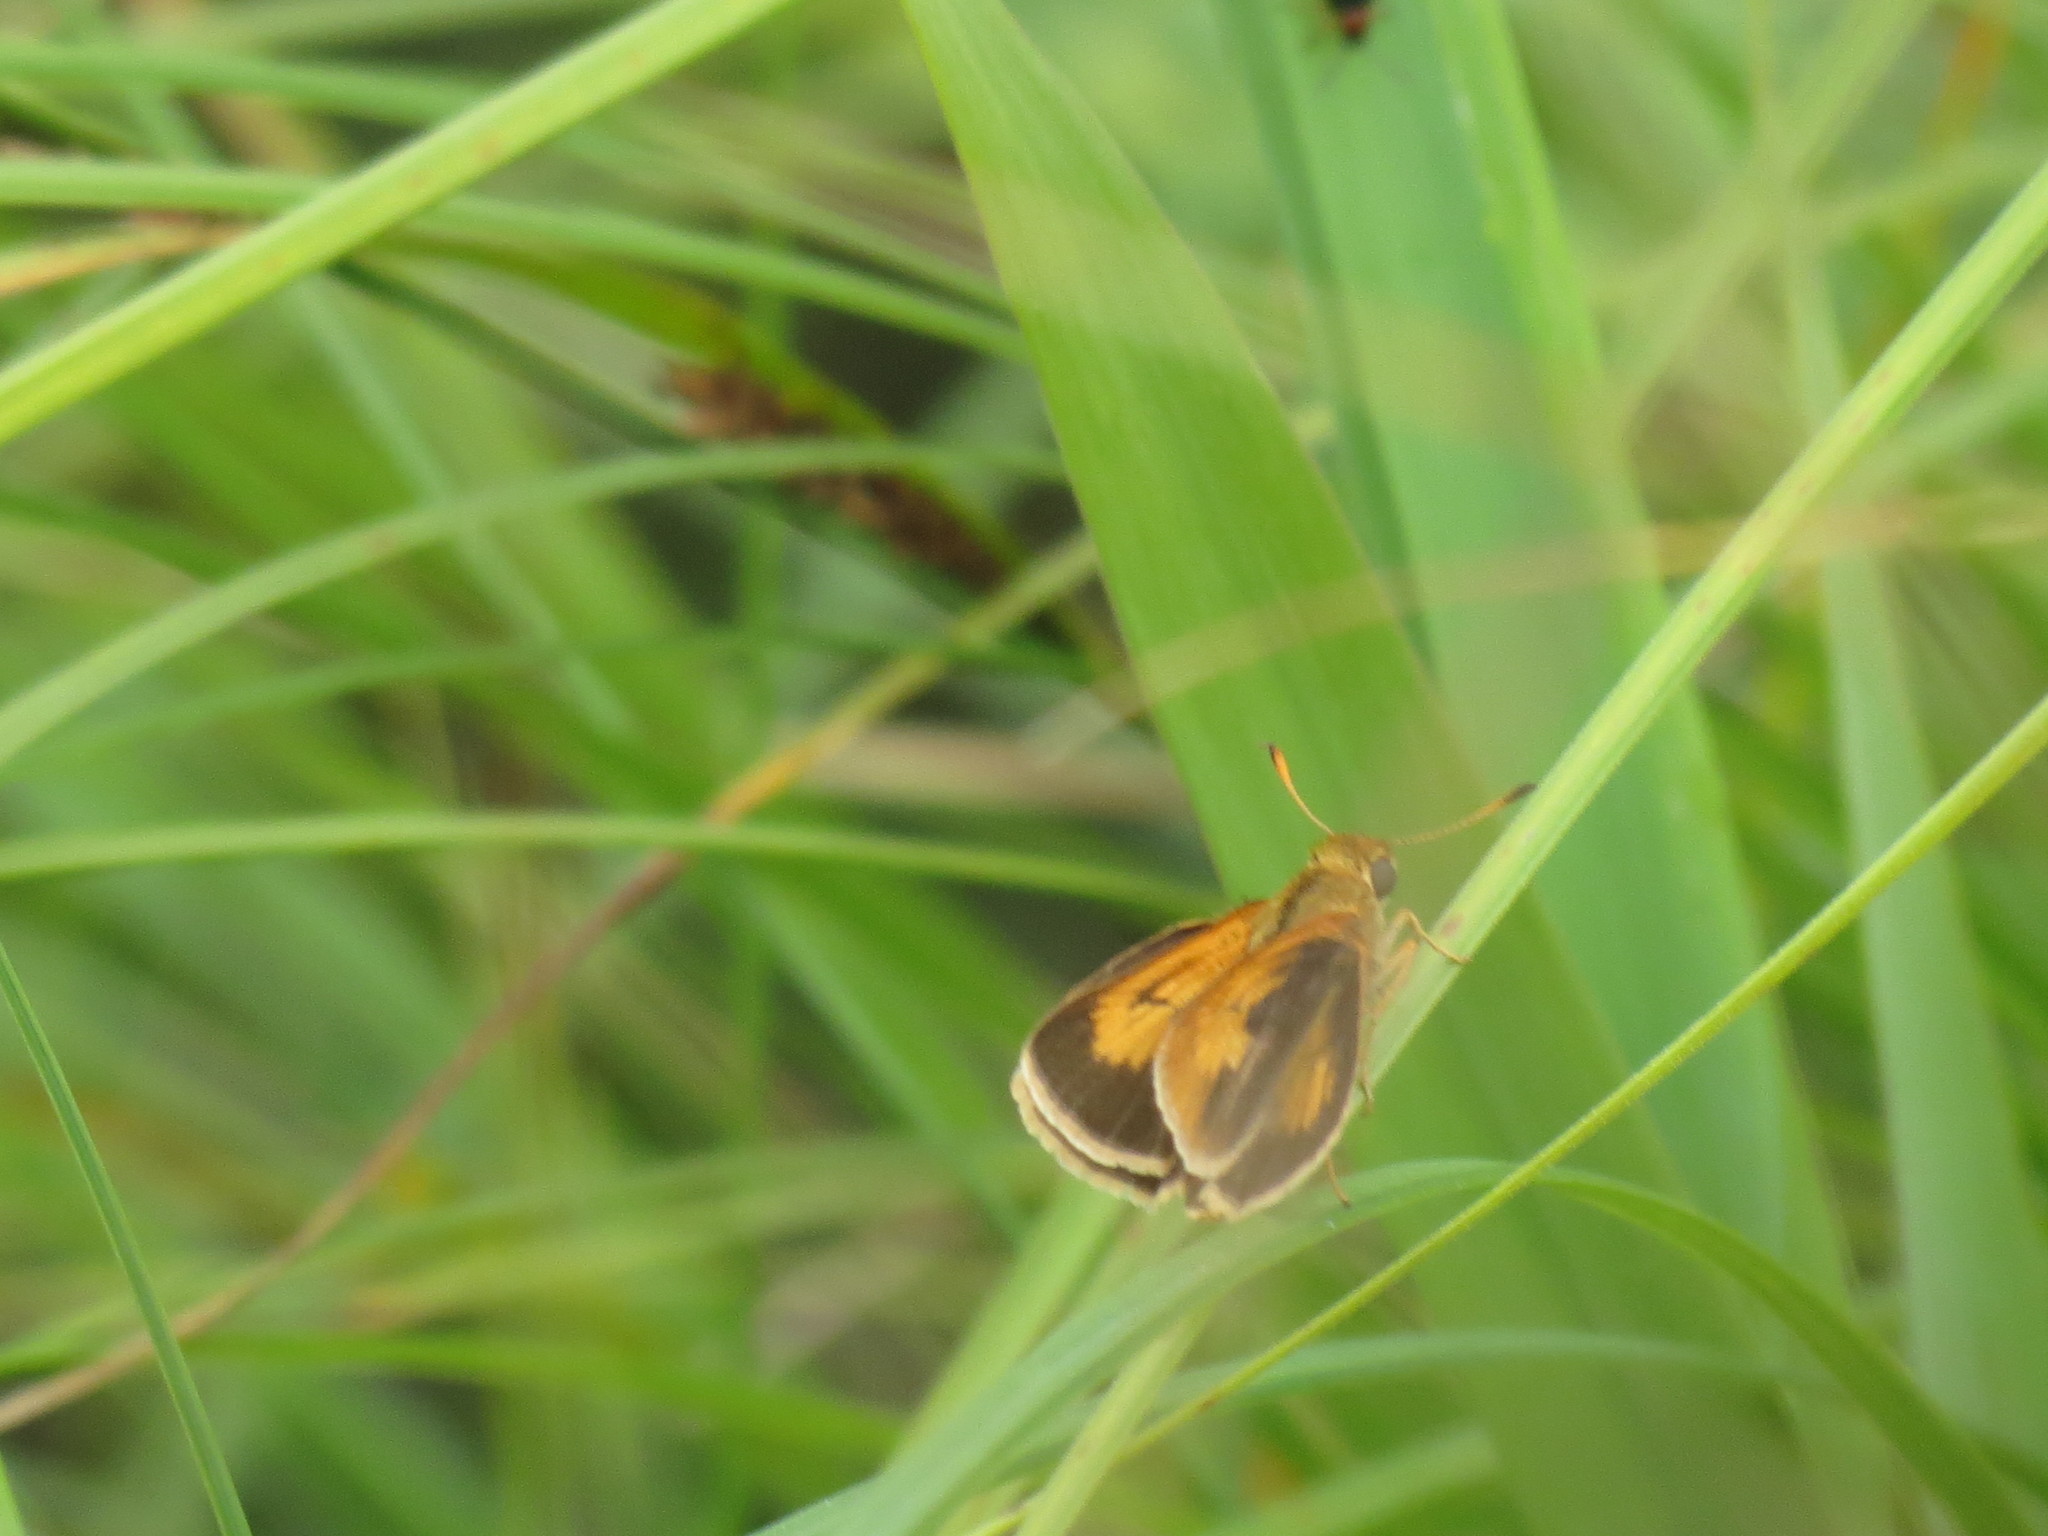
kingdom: Animalia
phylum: Arthropoda
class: Insecta
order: Lepidoptera
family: Hesperiidae
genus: Atrytone
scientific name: Atrytone delaware
